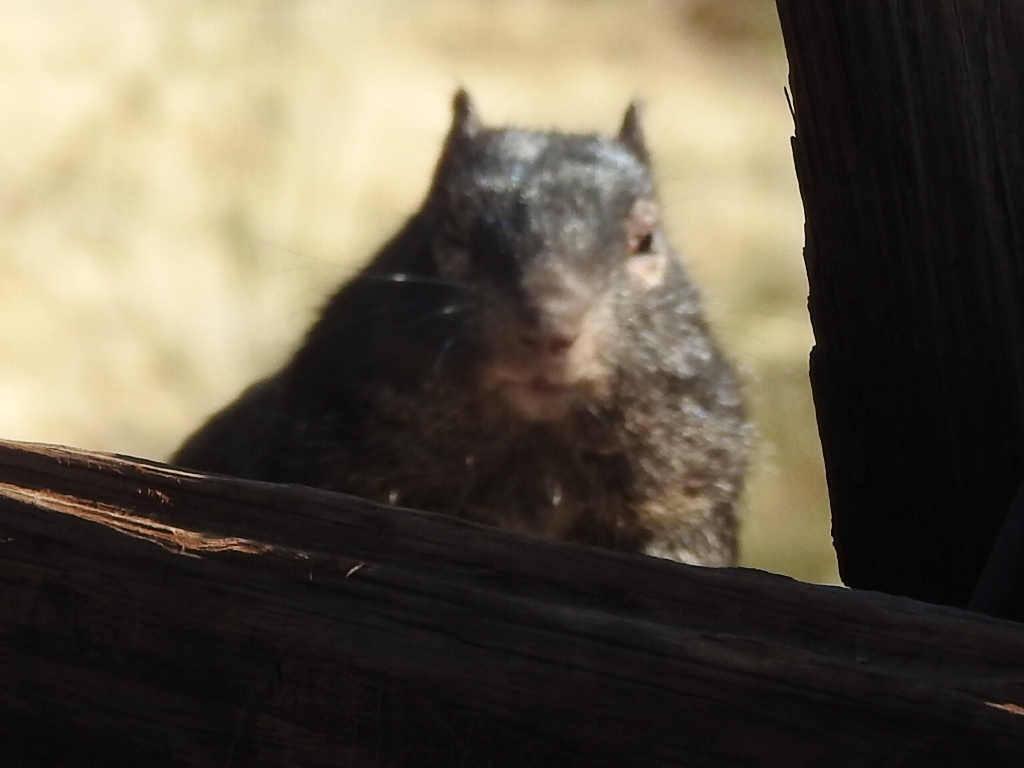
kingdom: Animalia
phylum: Chordata
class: Mammalia
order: Rodentia
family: Sciuridae
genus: Otospermophilus
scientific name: Otospermophilus variegatus
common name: Rock squirrel
